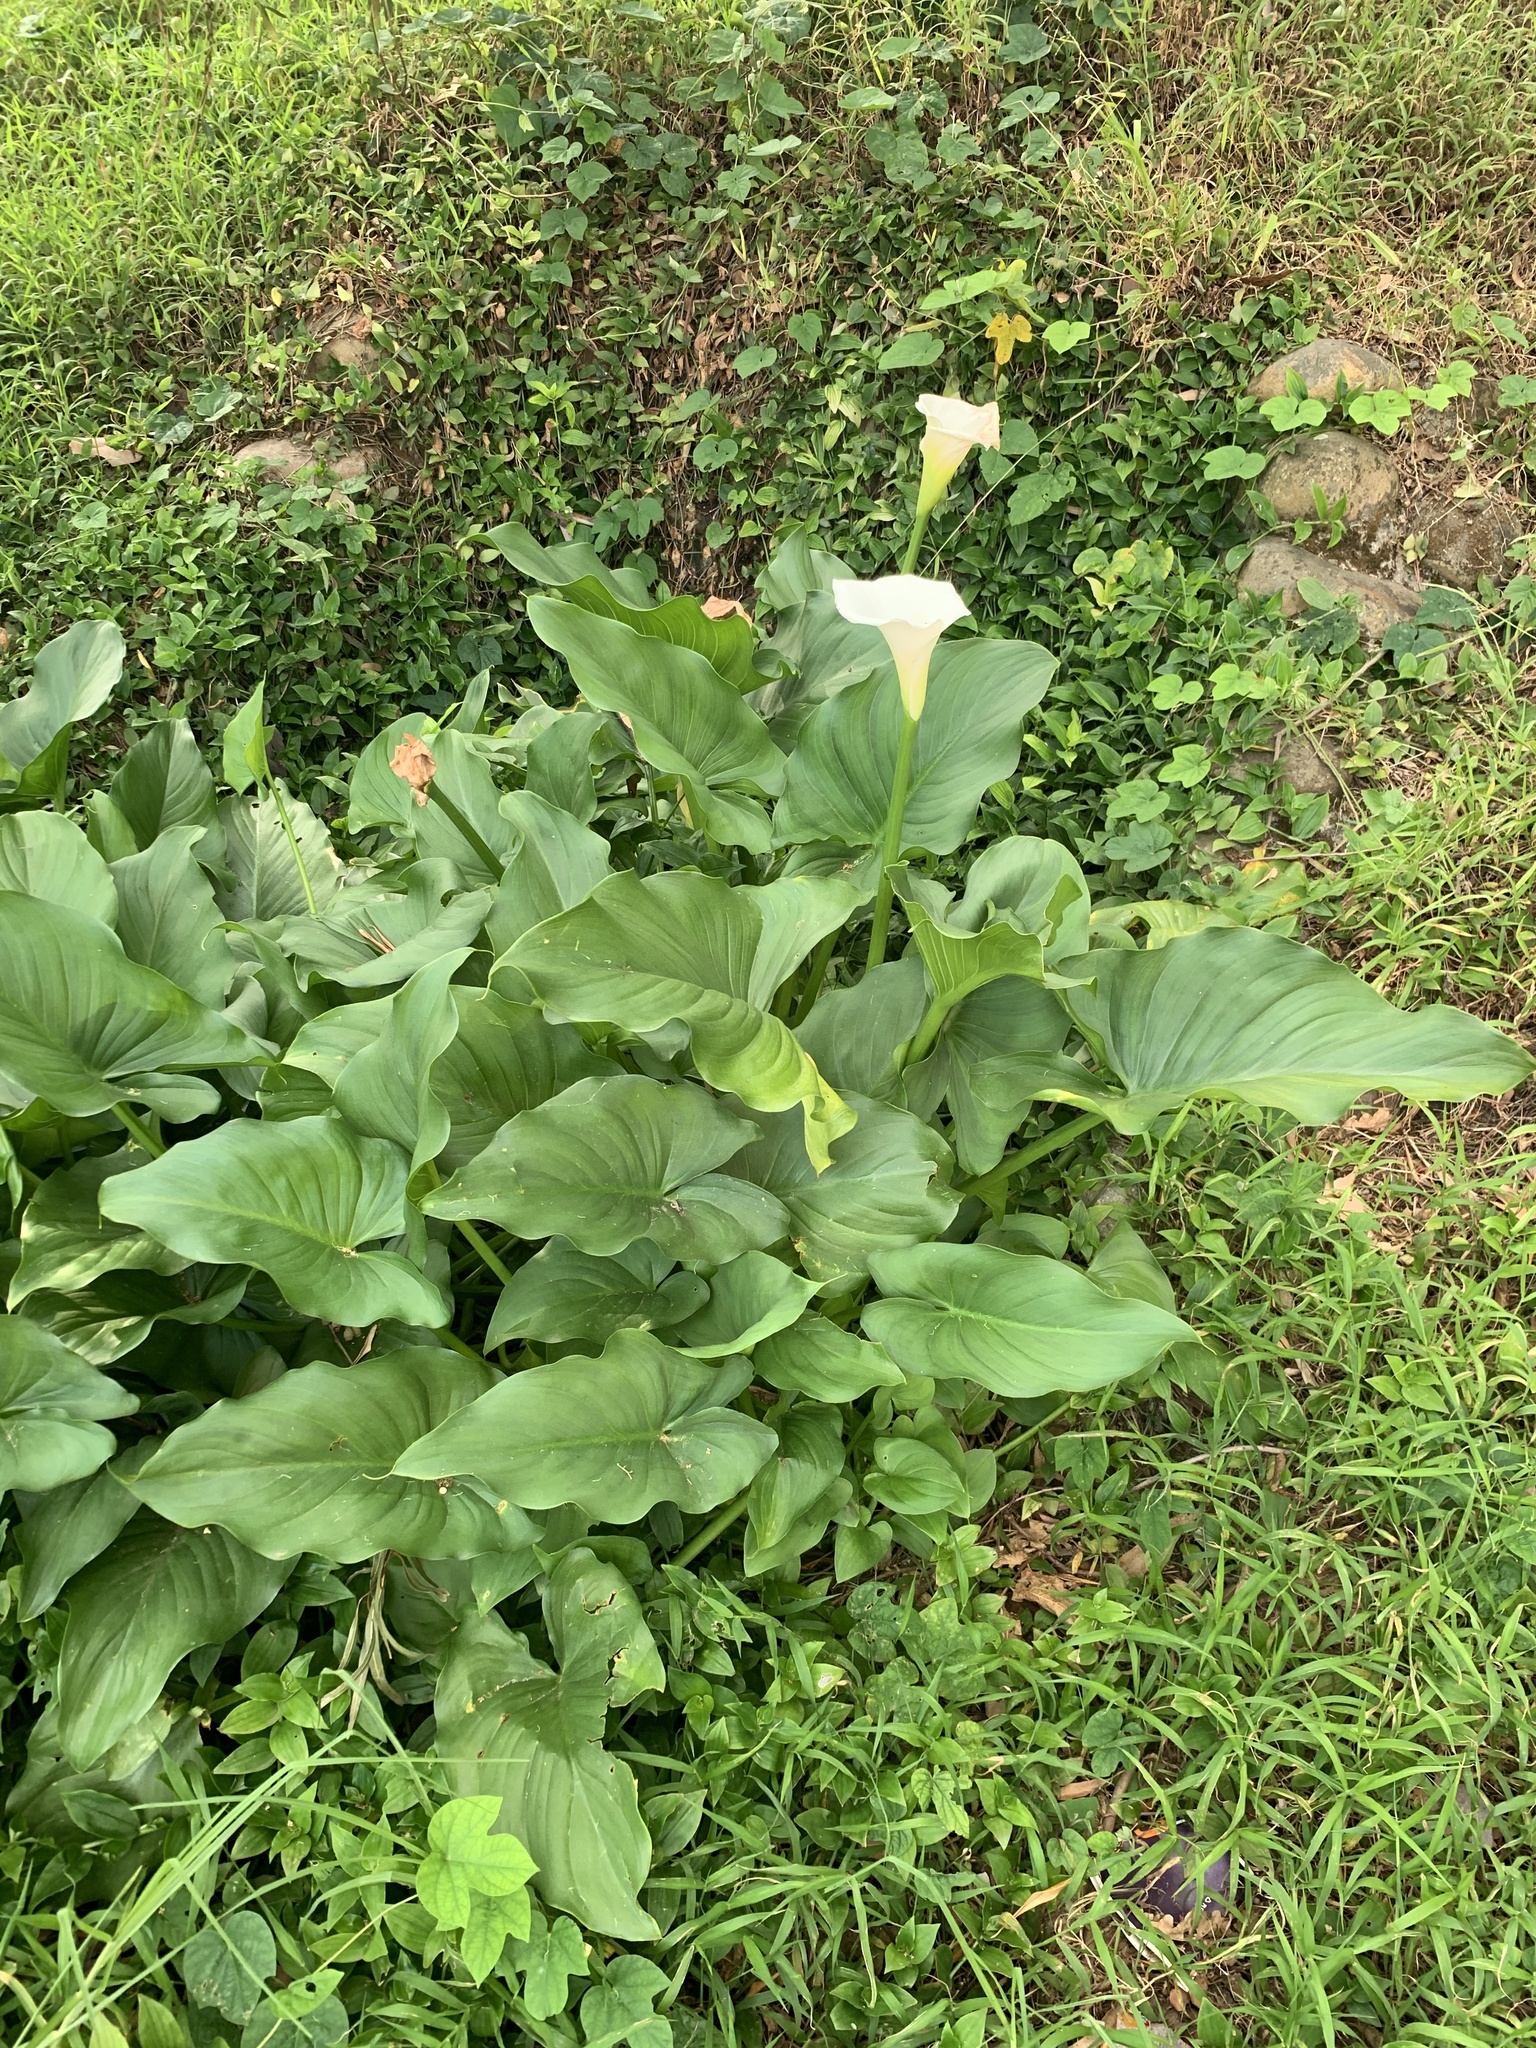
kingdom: Plantae
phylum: Tracheophyta
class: Liliopsida
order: Alismatales
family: Araceae
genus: Zantedeschia
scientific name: Zantedeschia aethiopica
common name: Altar-lily
